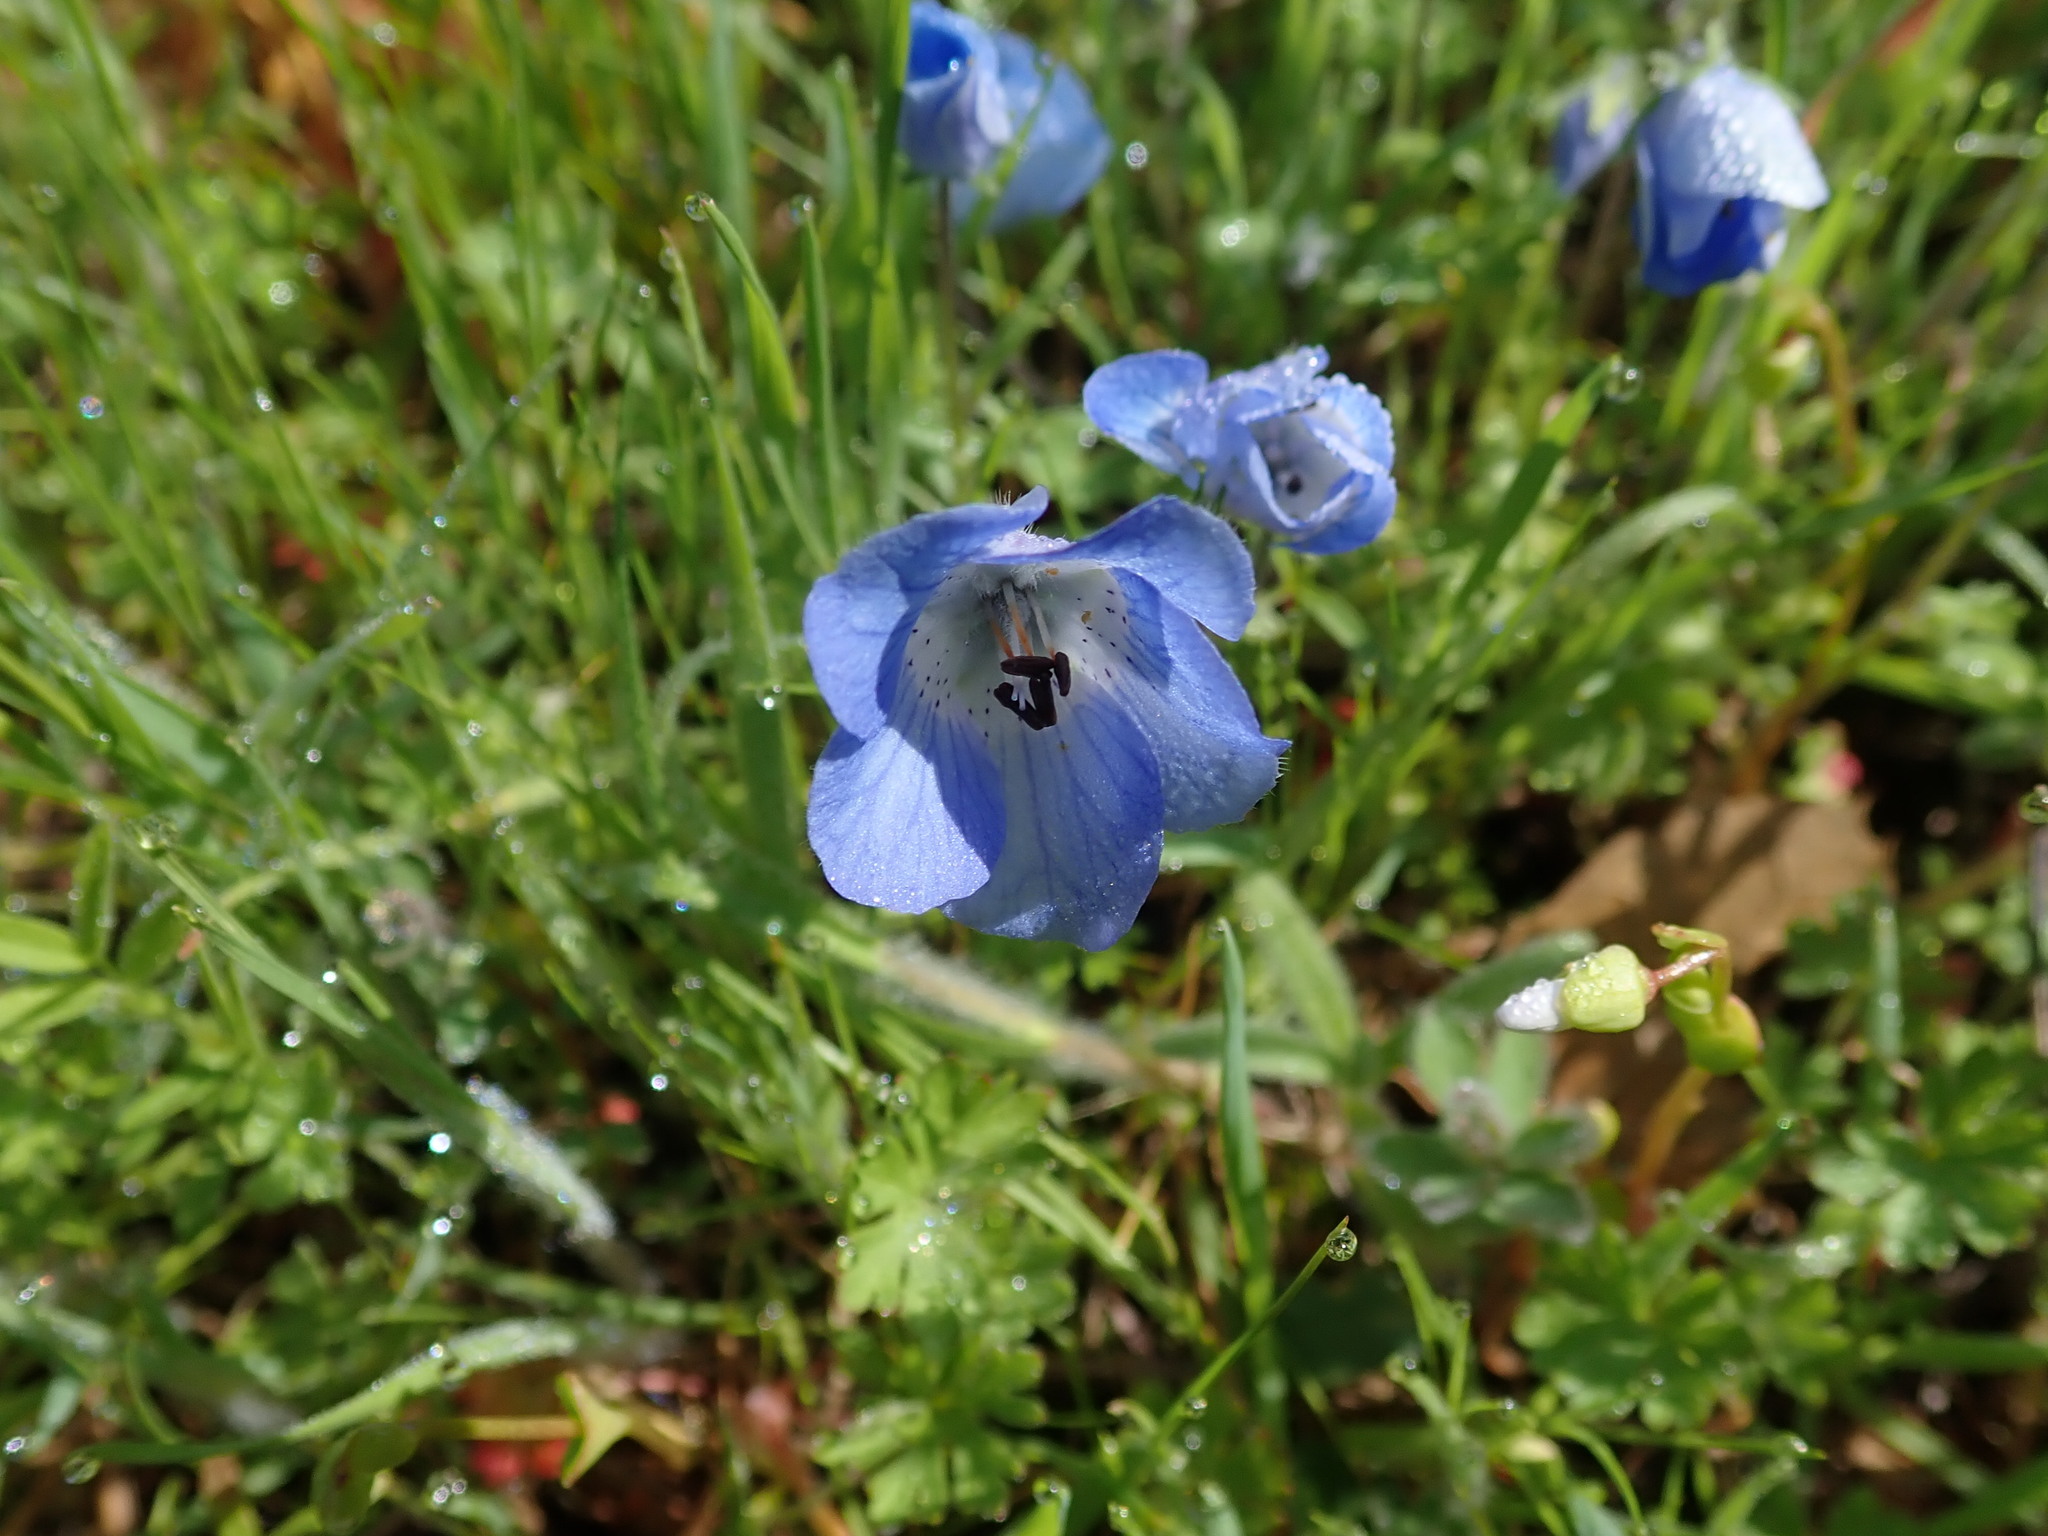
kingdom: Plantae
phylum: Tracheophyta
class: Magnoliopsida
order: Boraginales
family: Hydrophyllaceae
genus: Nemophila
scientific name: Nemophila menziesii
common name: Baby's-blue-eyes
